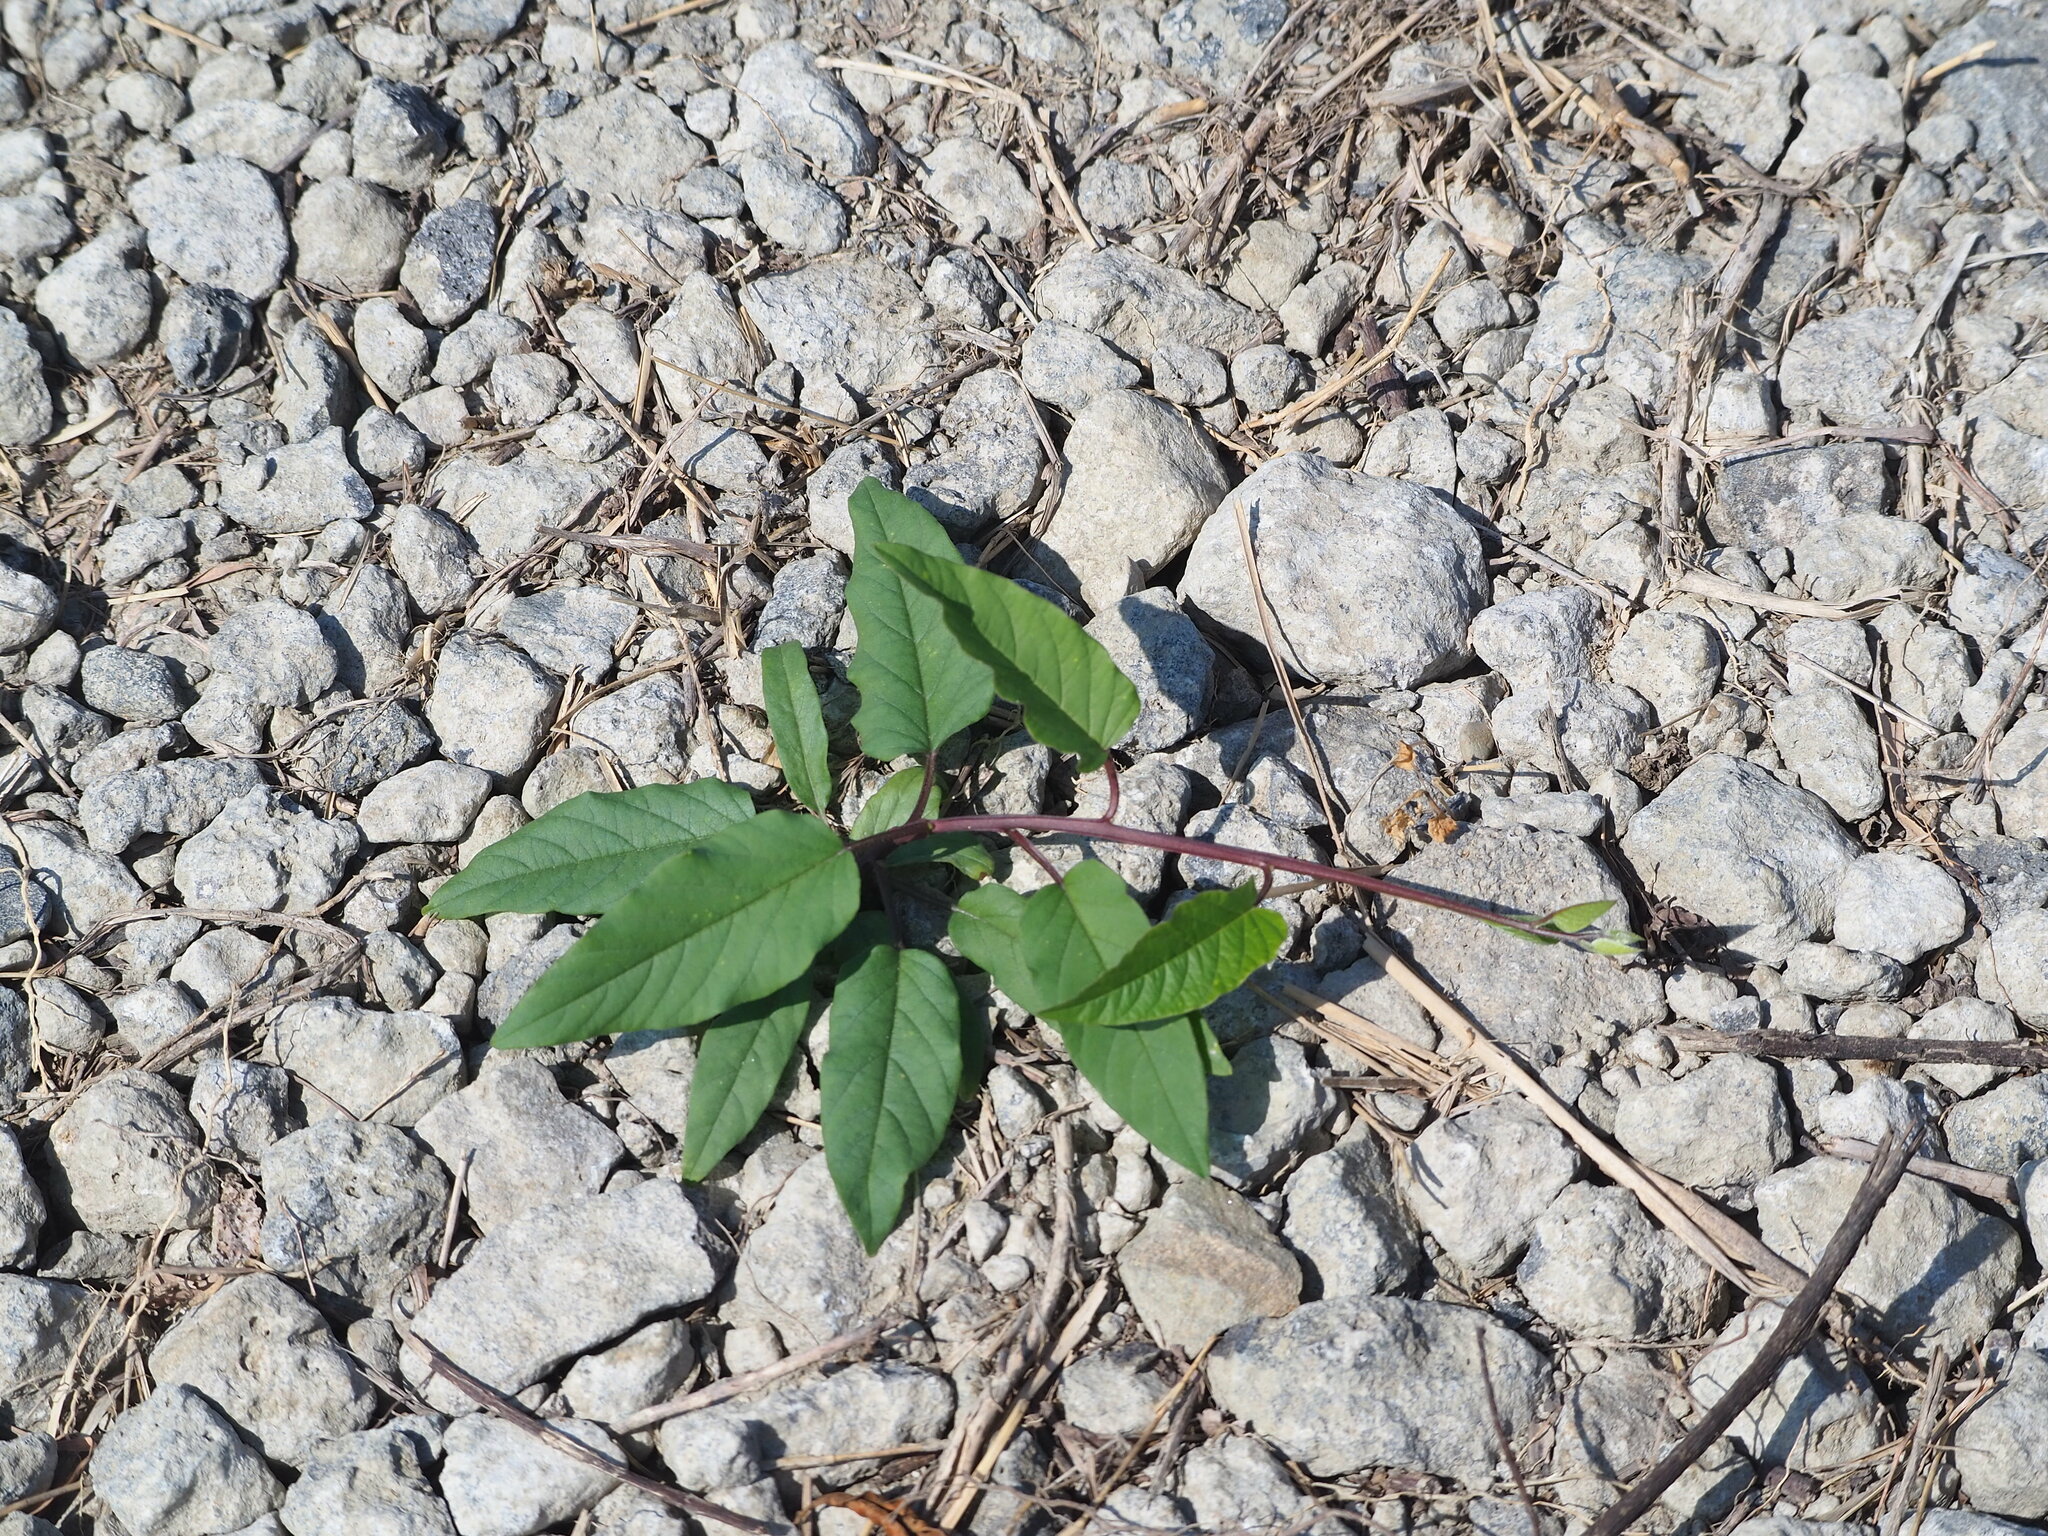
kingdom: Plantae
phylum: Tracheophyta
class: Magnoliopsida
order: Solanales
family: Convolvulaceae
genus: Operculina
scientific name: Operculina turpethum
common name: Transparent wood-rose
